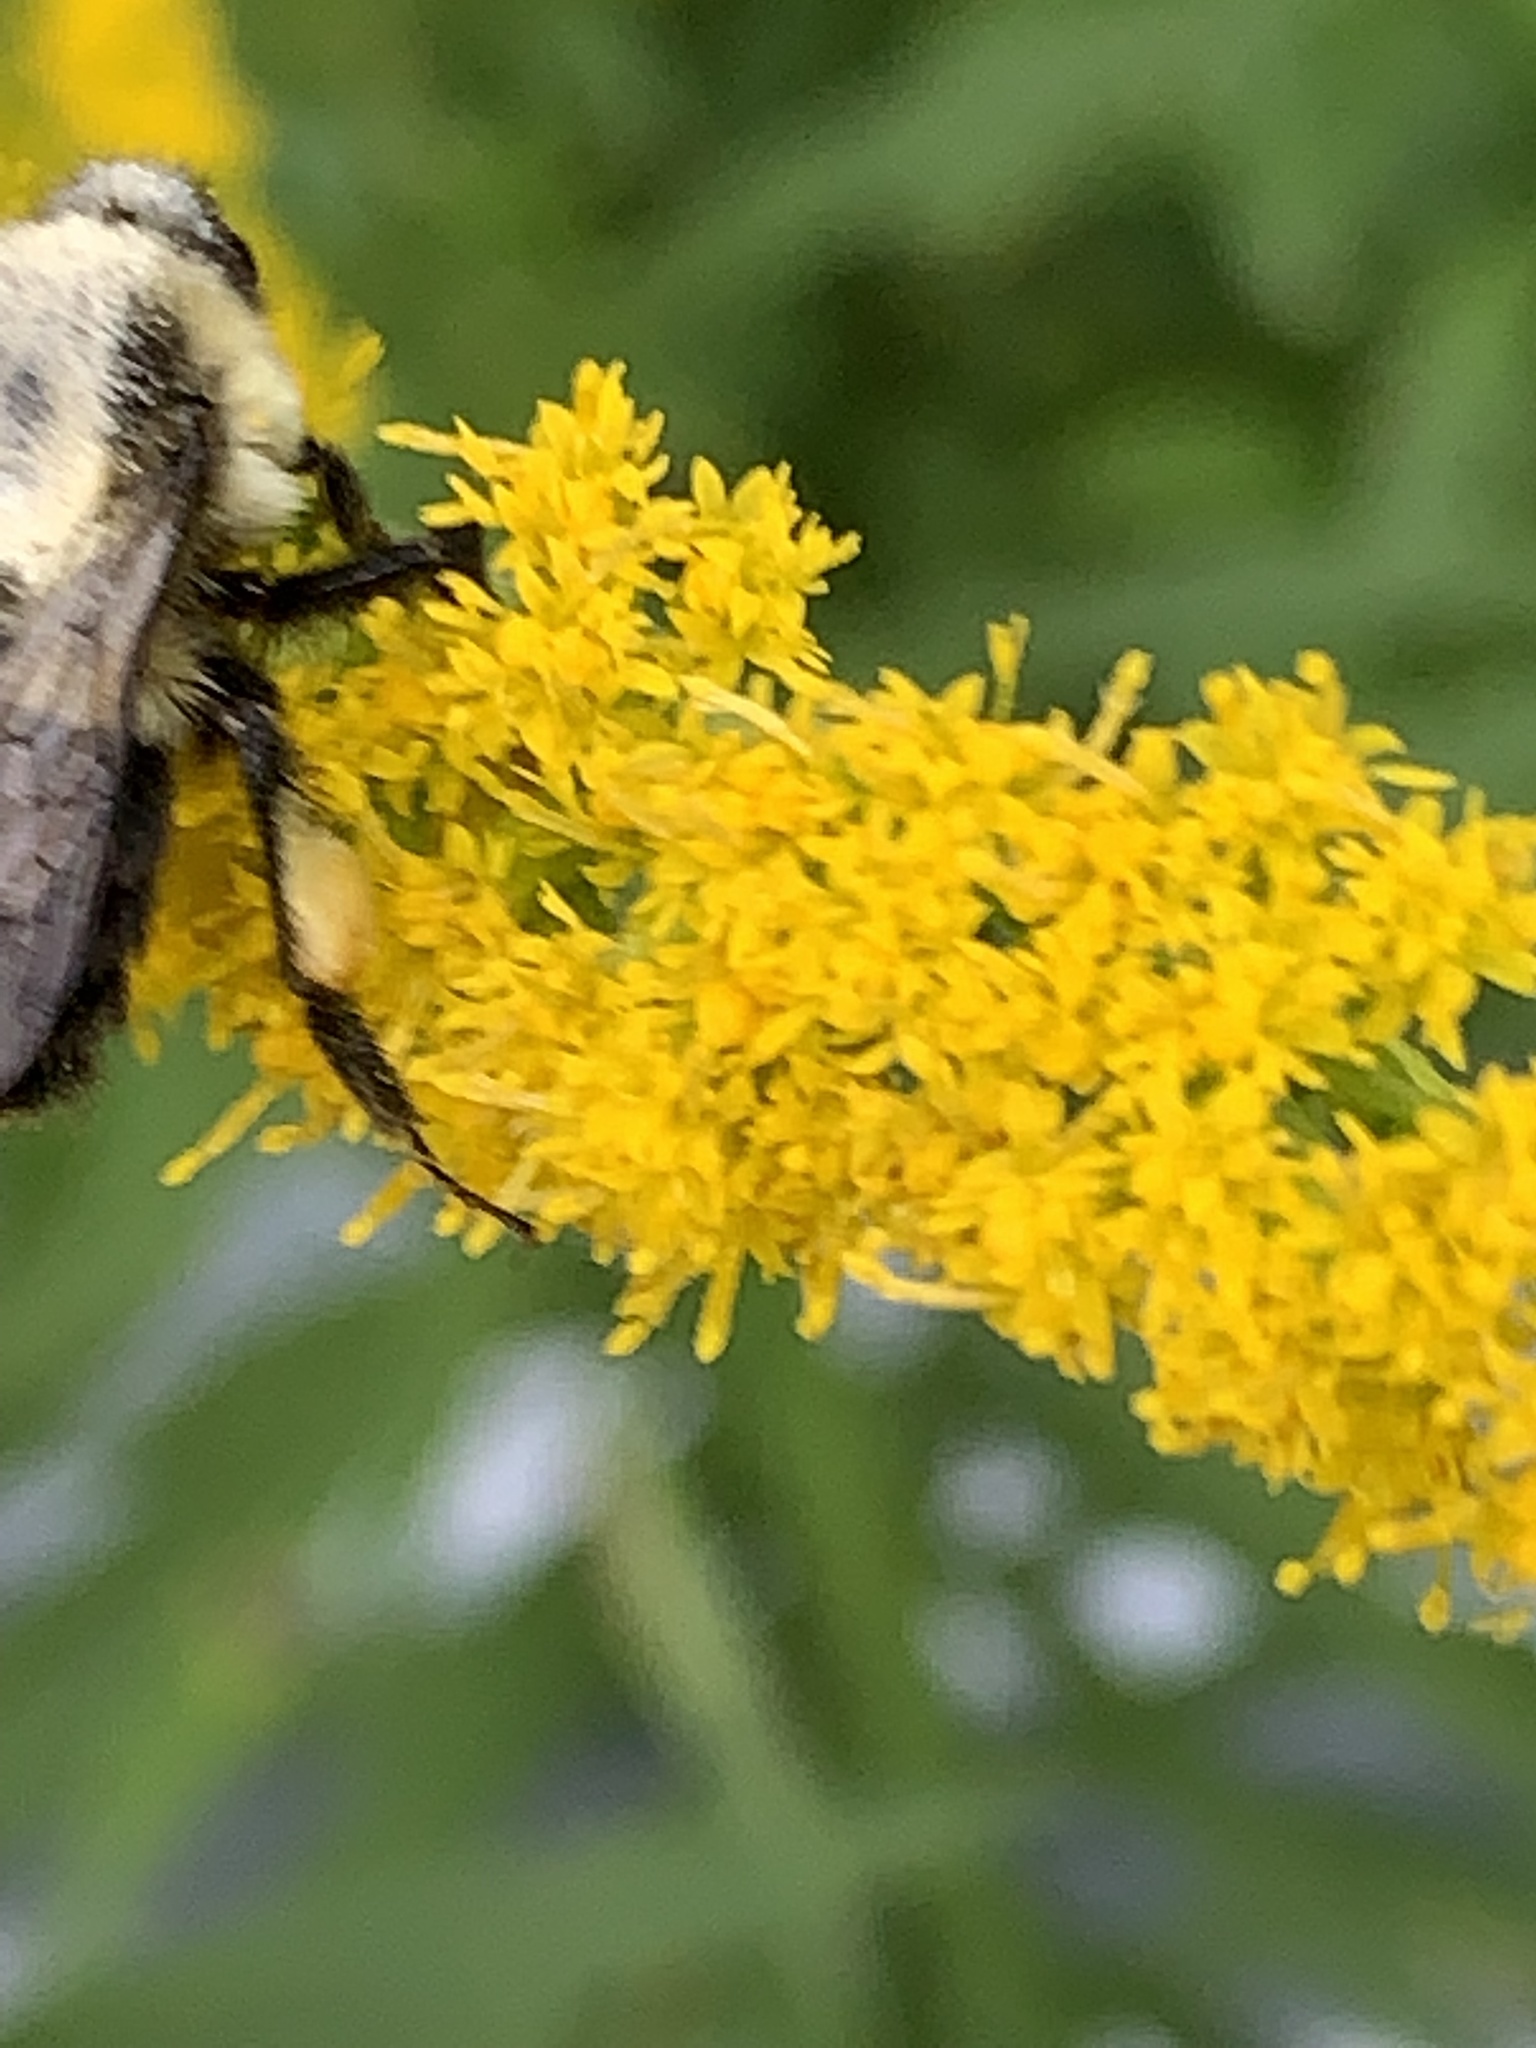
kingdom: Animalia
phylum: Arthropoda
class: Insecta
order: Hymenoptera
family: Apidae
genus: Bombus
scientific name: Bombus impatiens
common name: Common eastern bumble bee
